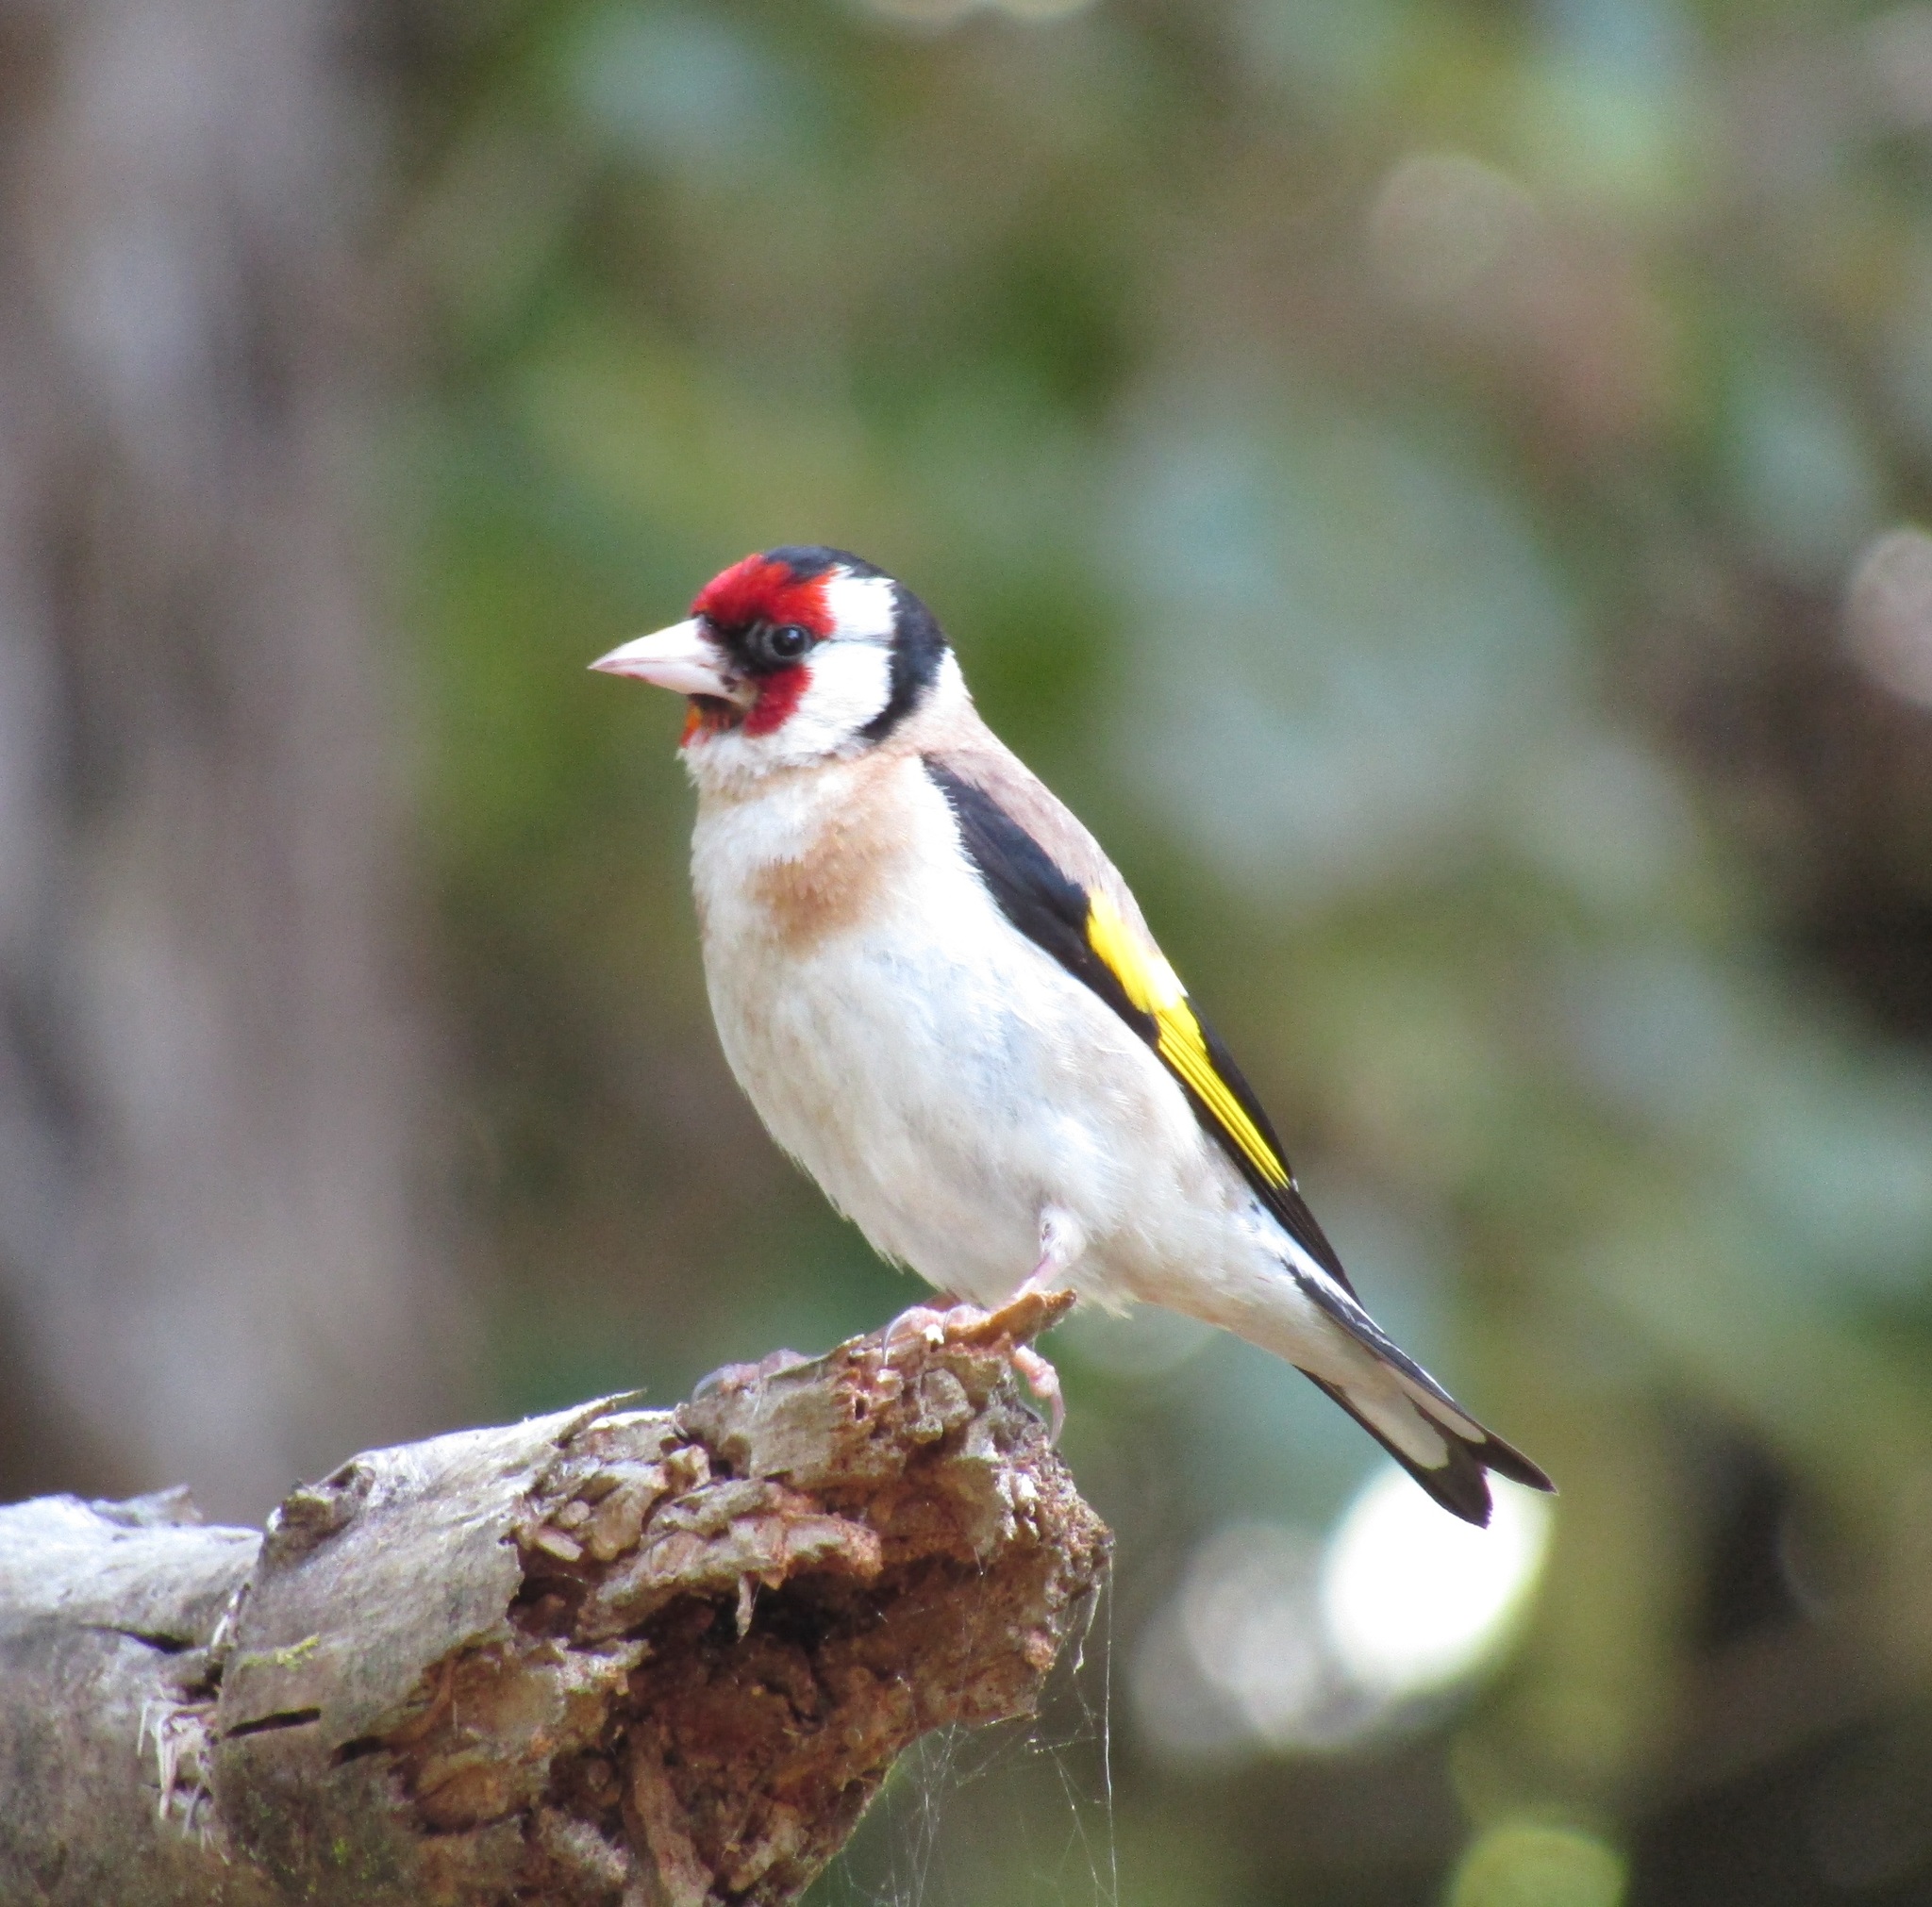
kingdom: Animalia
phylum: Chordata
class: Aves
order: Passeriformes
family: Fringillidae
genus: Carduelis
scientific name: Carduelis carduelis
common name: European goldfinch
